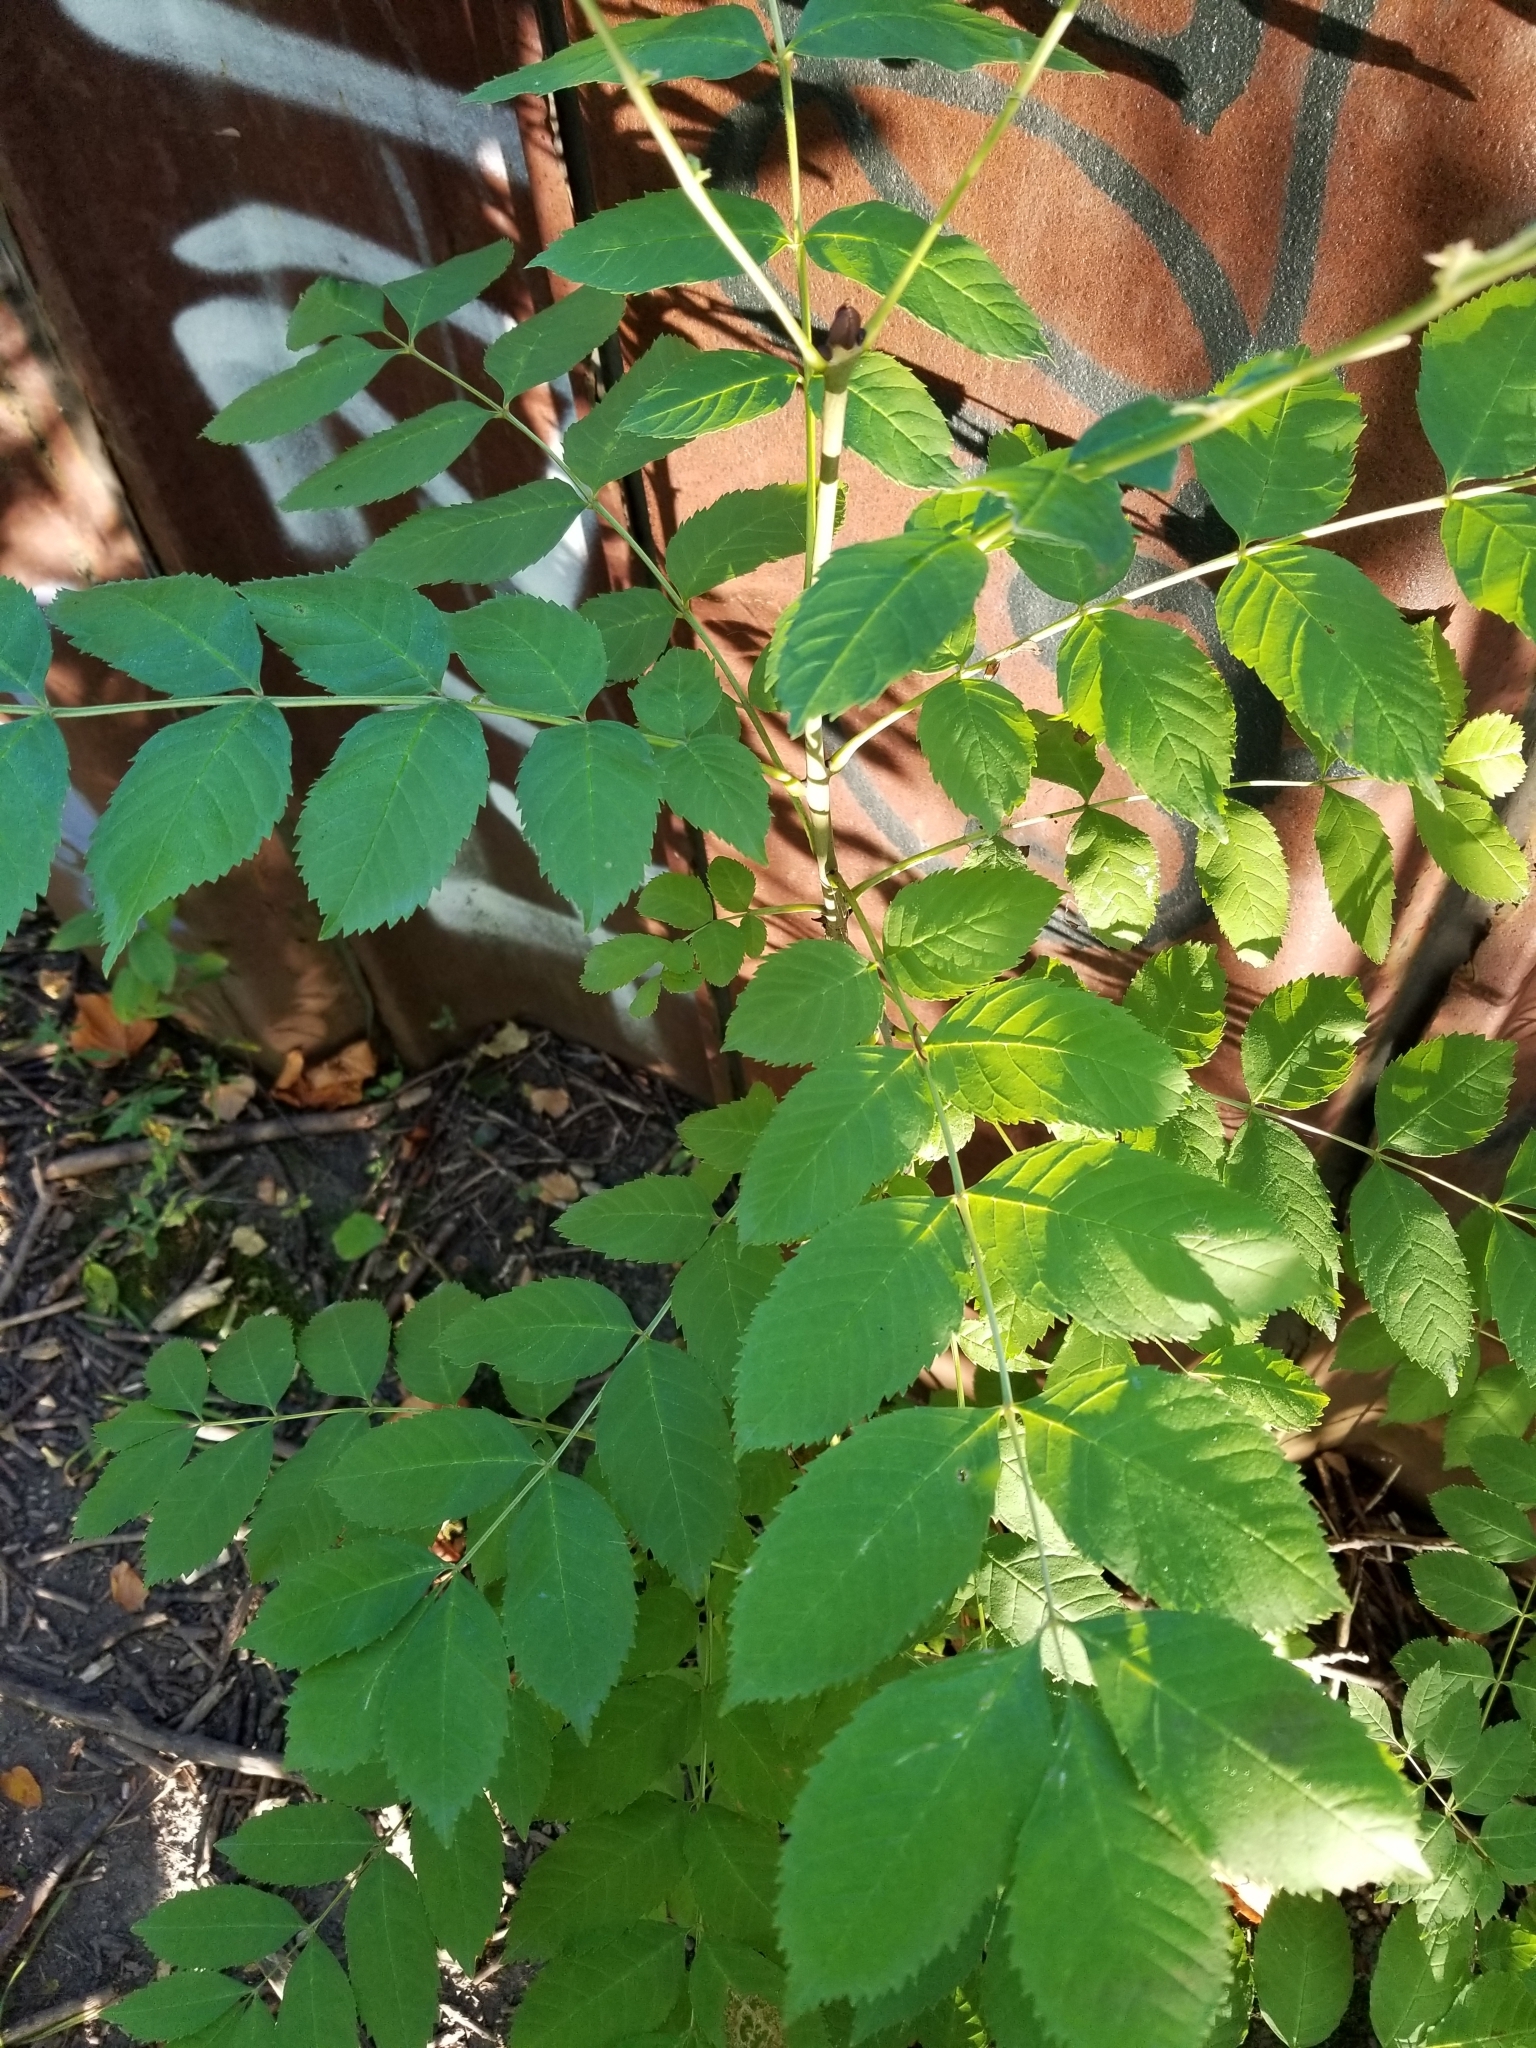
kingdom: Plantae
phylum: Tracheophyta
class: Magnoliopsida
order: Lamiales
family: Oleaceae
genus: Fraxinus
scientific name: Fraxinus excelsior
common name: European ash
